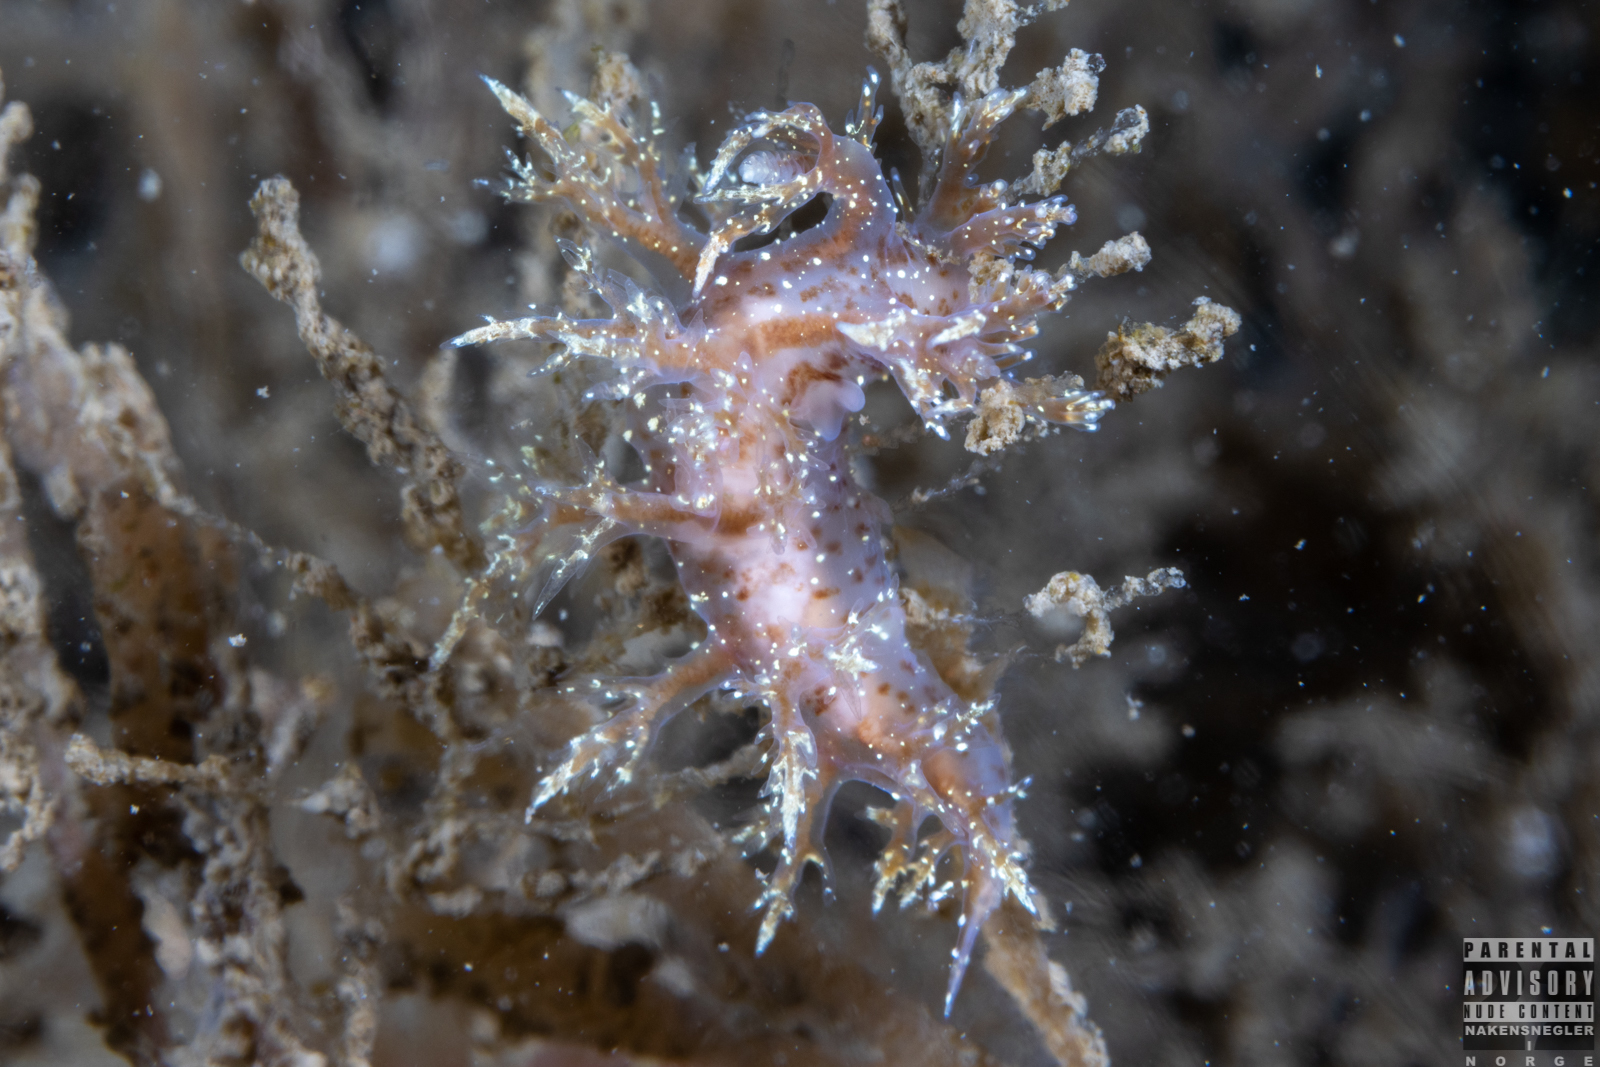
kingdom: Animalia
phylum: Mollusca
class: Gastropoda
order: Nudibranchia
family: Dendronotidae
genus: Dendronotus
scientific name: Dendronotus frondosus
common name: Bushy-backed nudibranch
